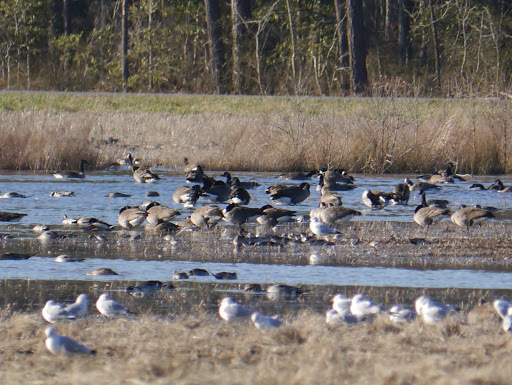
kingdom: Animalia
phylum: Chordata
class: Aves
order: Anseriformes
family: Anatidae
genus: Branta
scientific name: Branta canadensis
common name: Canada goose
